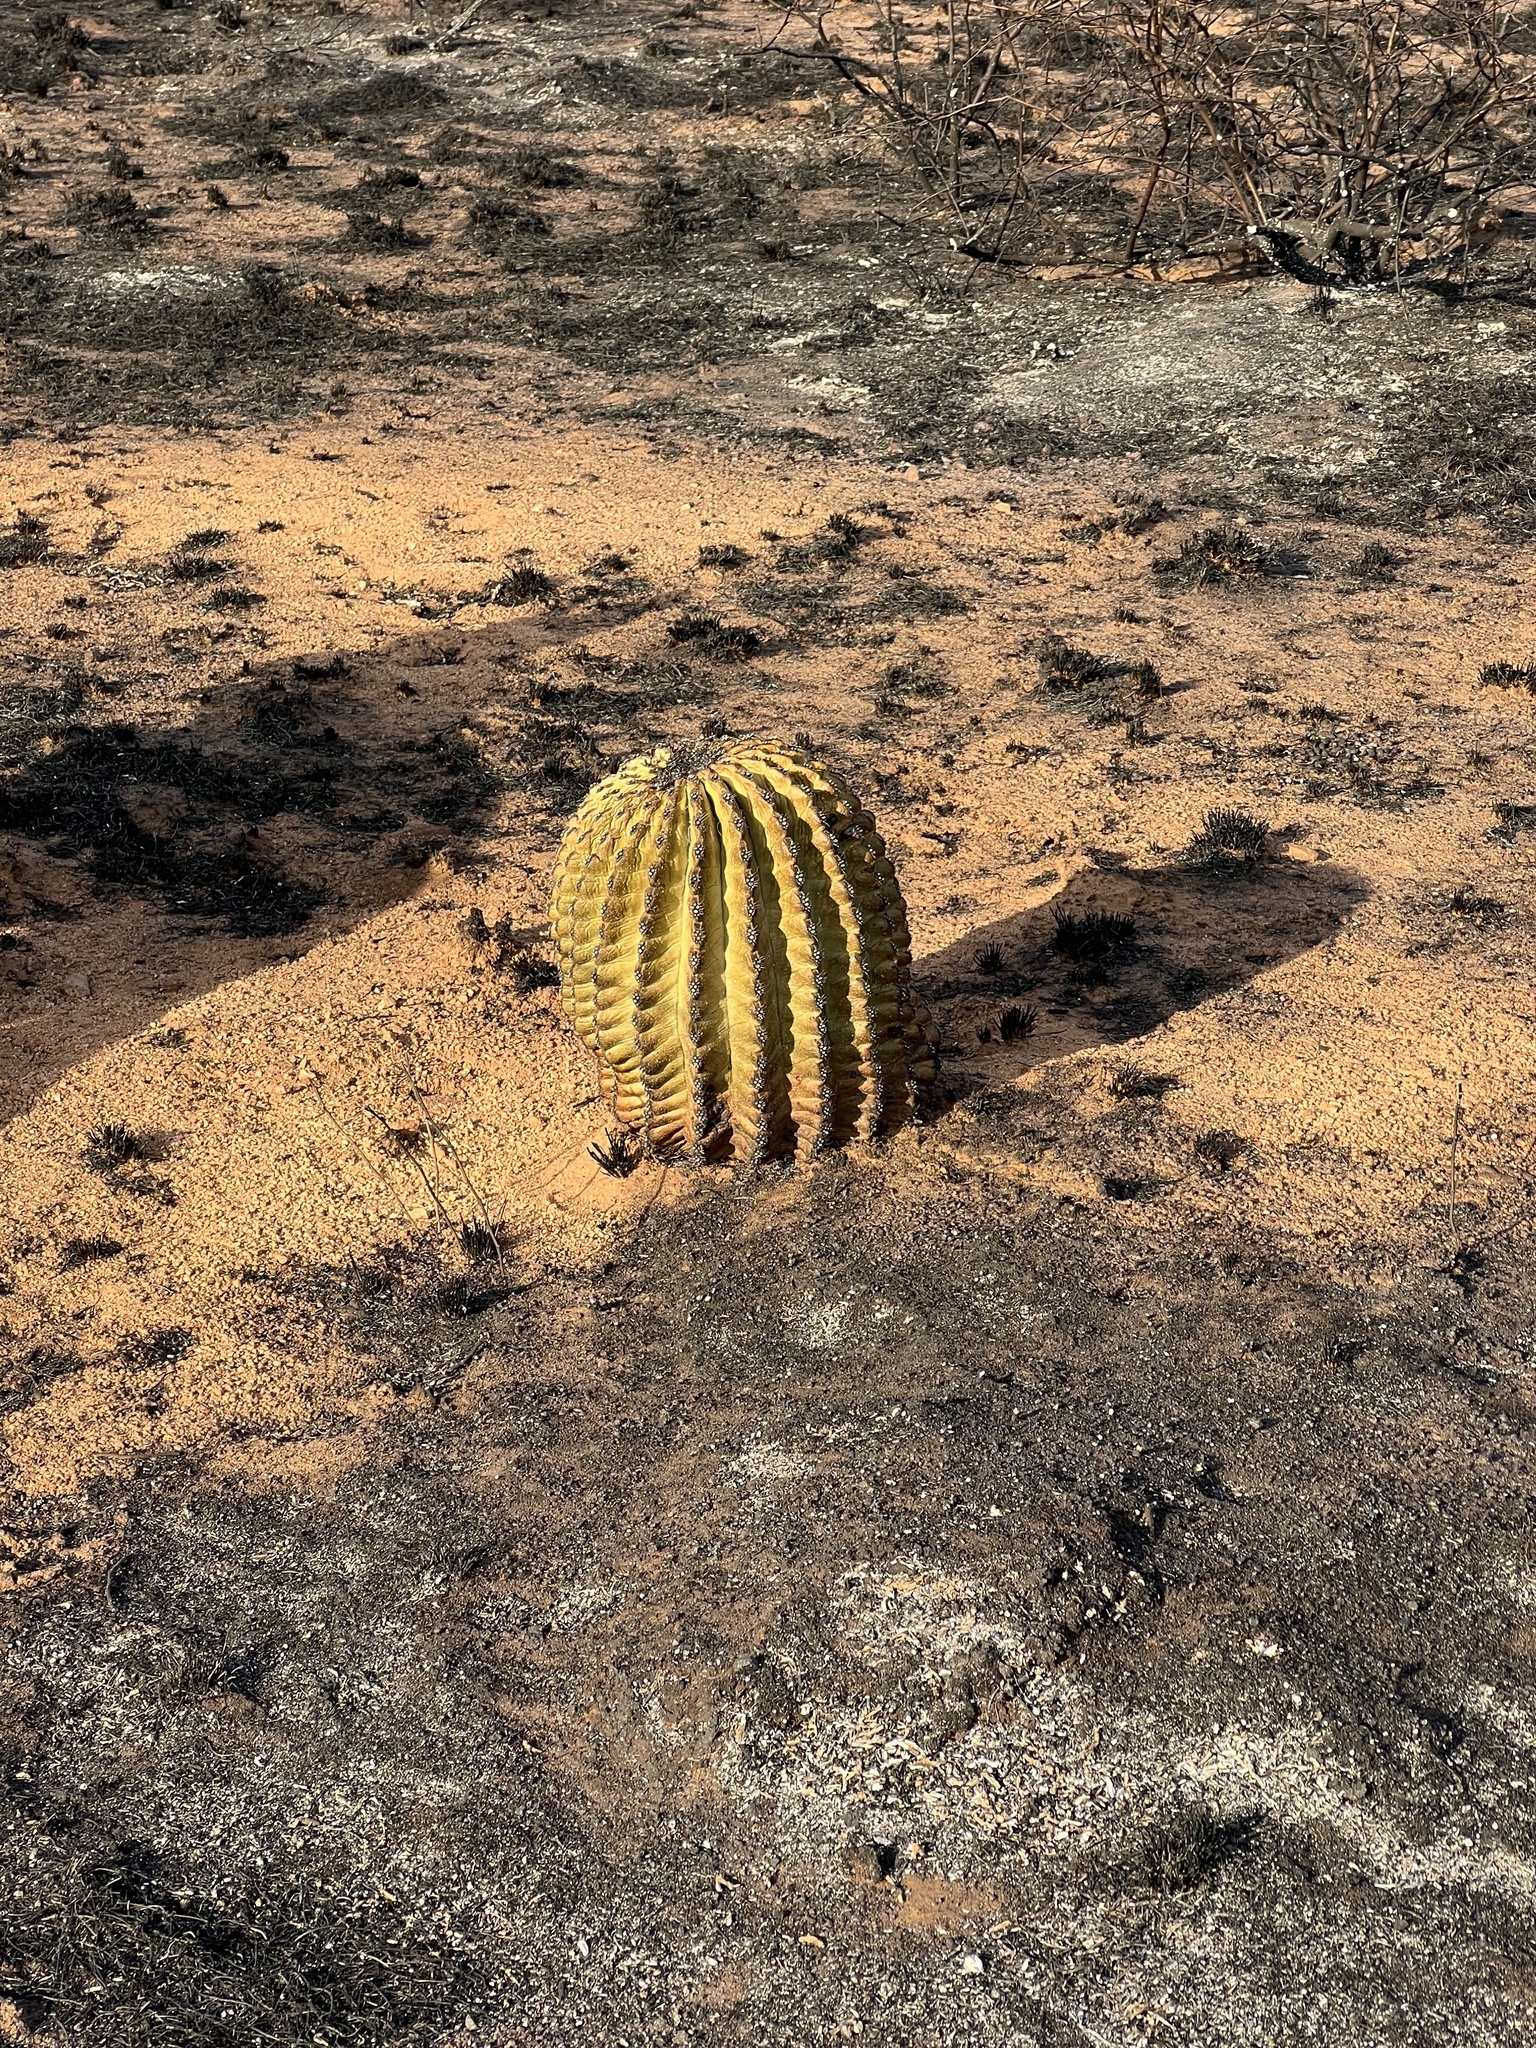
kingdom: Plantae
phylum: Tracheophyta
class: Magnoliopsida
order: Caryophyllales
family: Cactaceae
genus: Ferocactus
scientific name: Ferocactus wislizeni
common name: Candy barrel cactus
